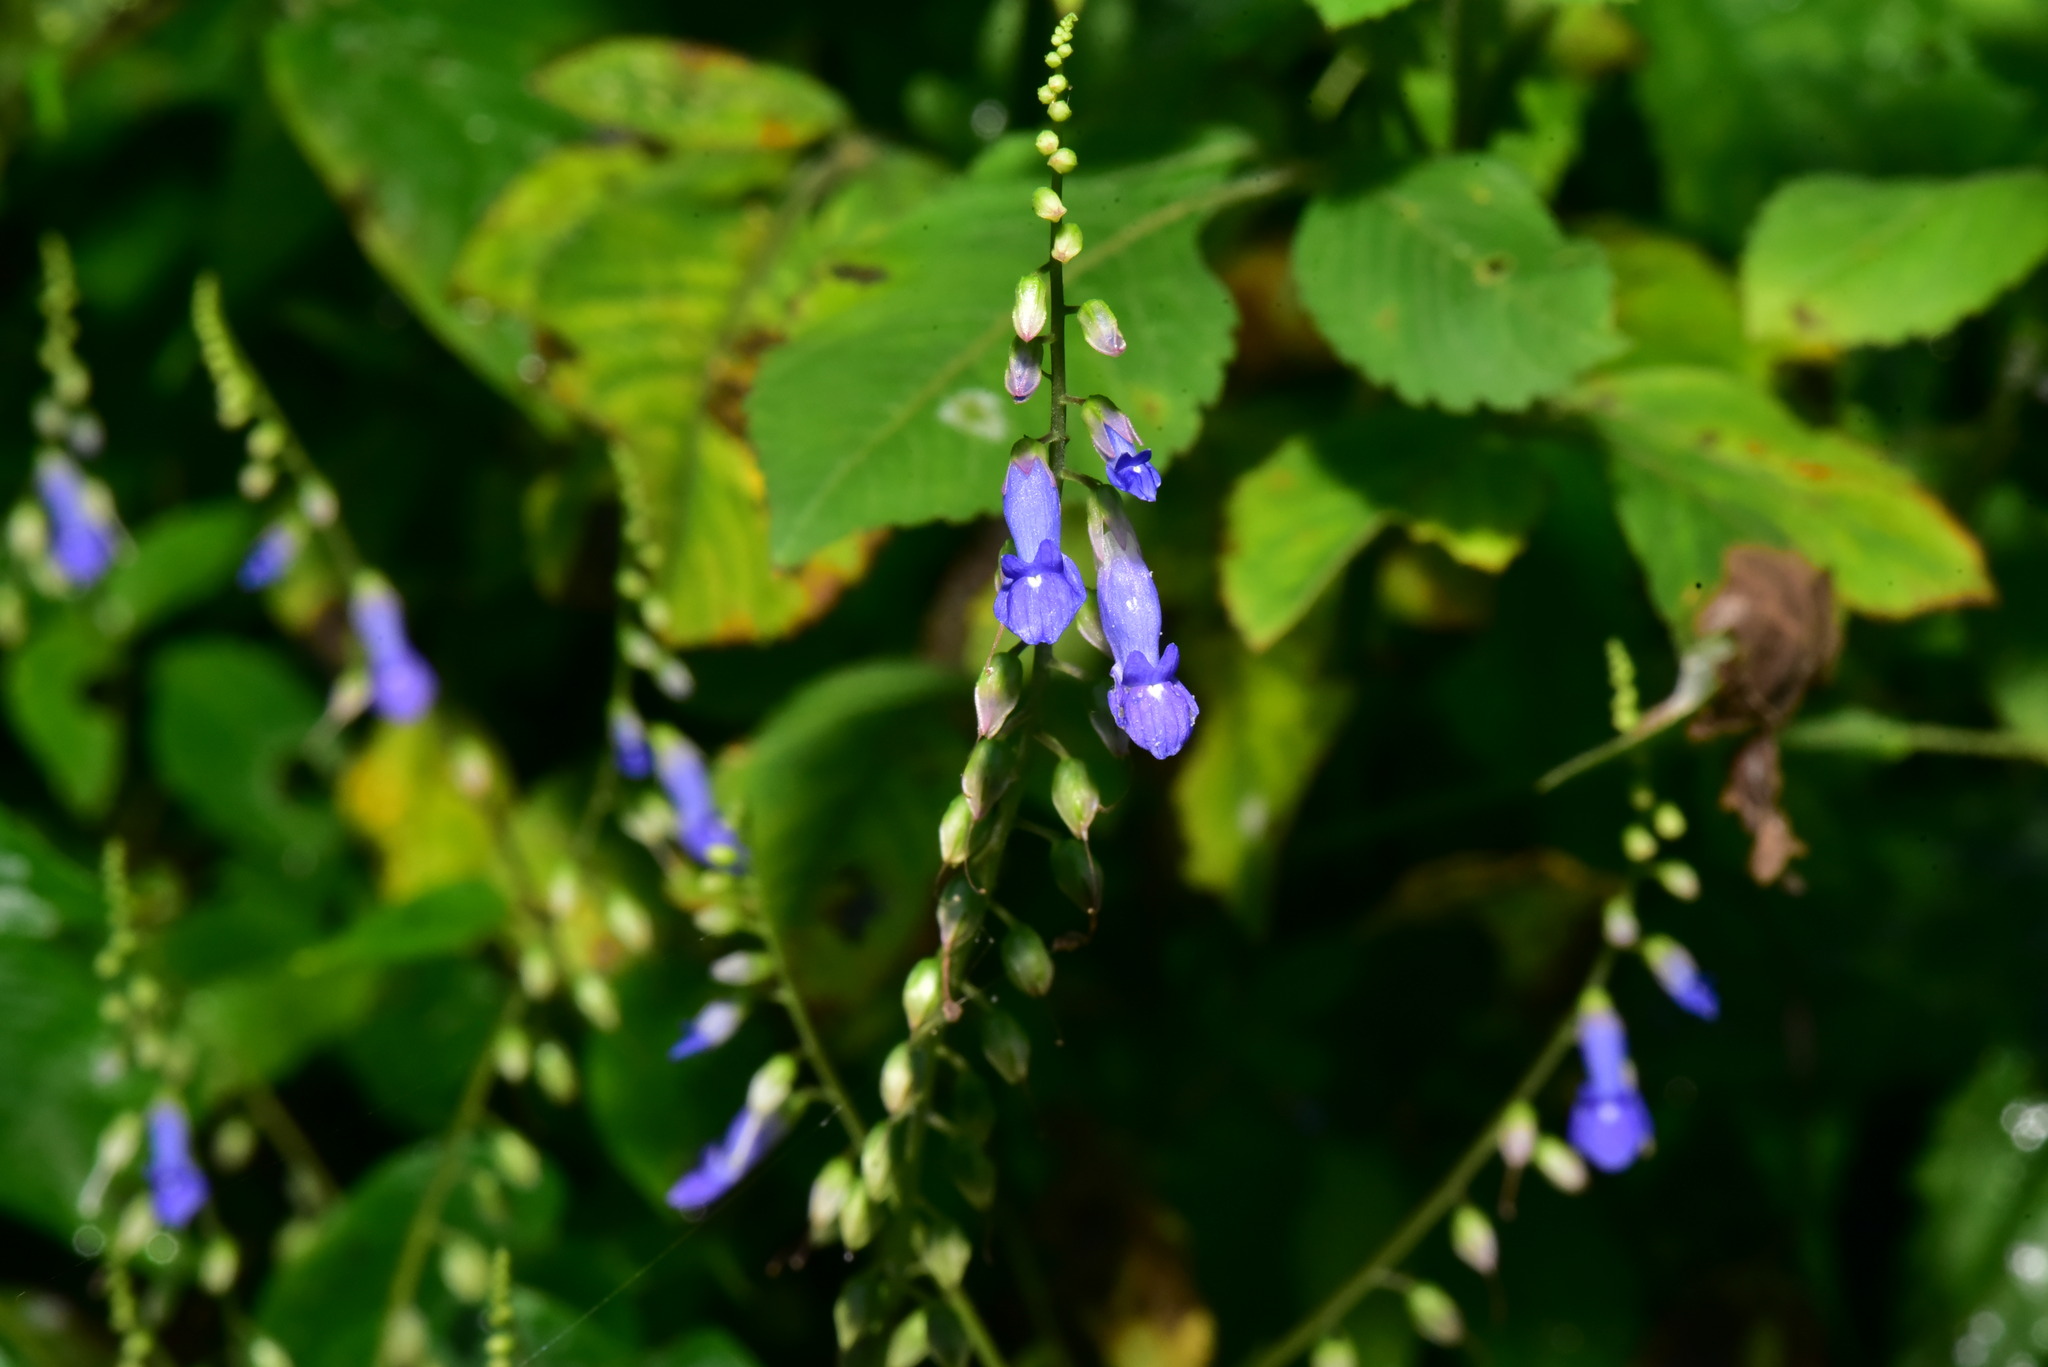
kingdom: Plantae
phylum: Tracheophyta
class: Magnoliopsida
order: Lamiales
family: Gesneriaceae
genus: Rhynchoglossum
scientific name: Rhynchoglossum obliquum
